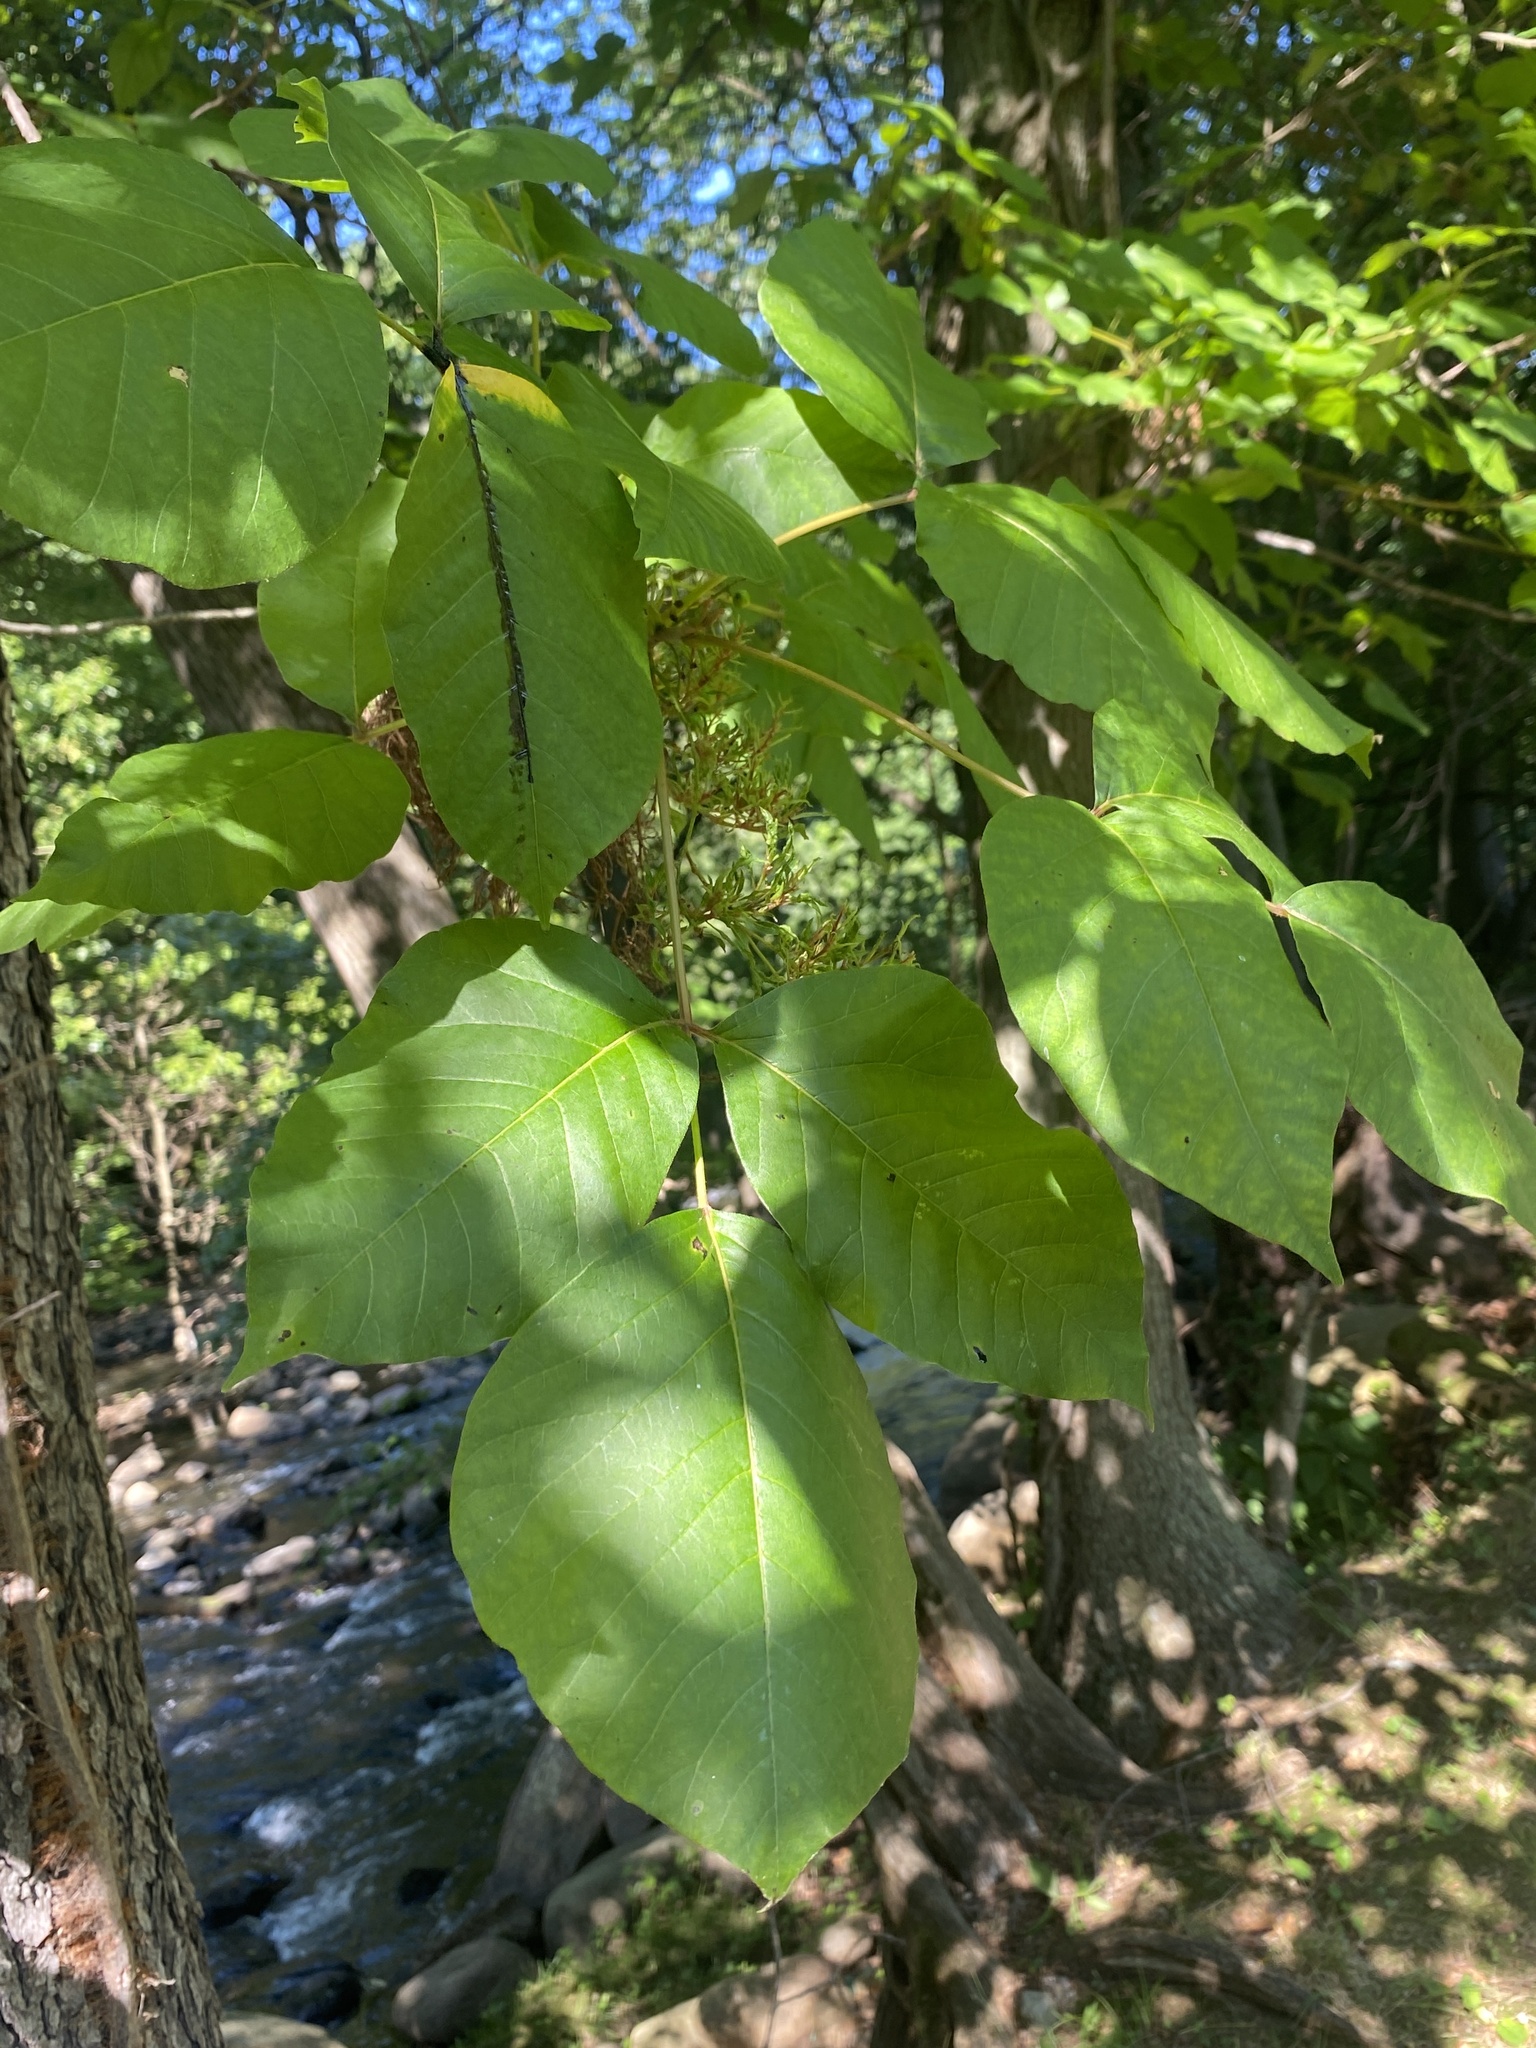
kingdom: Animalia
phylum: Arthropoda
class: Arachnida
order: Trombidiformes
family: Eriophyidae
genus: Eriophyes
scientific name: Eriophyes
